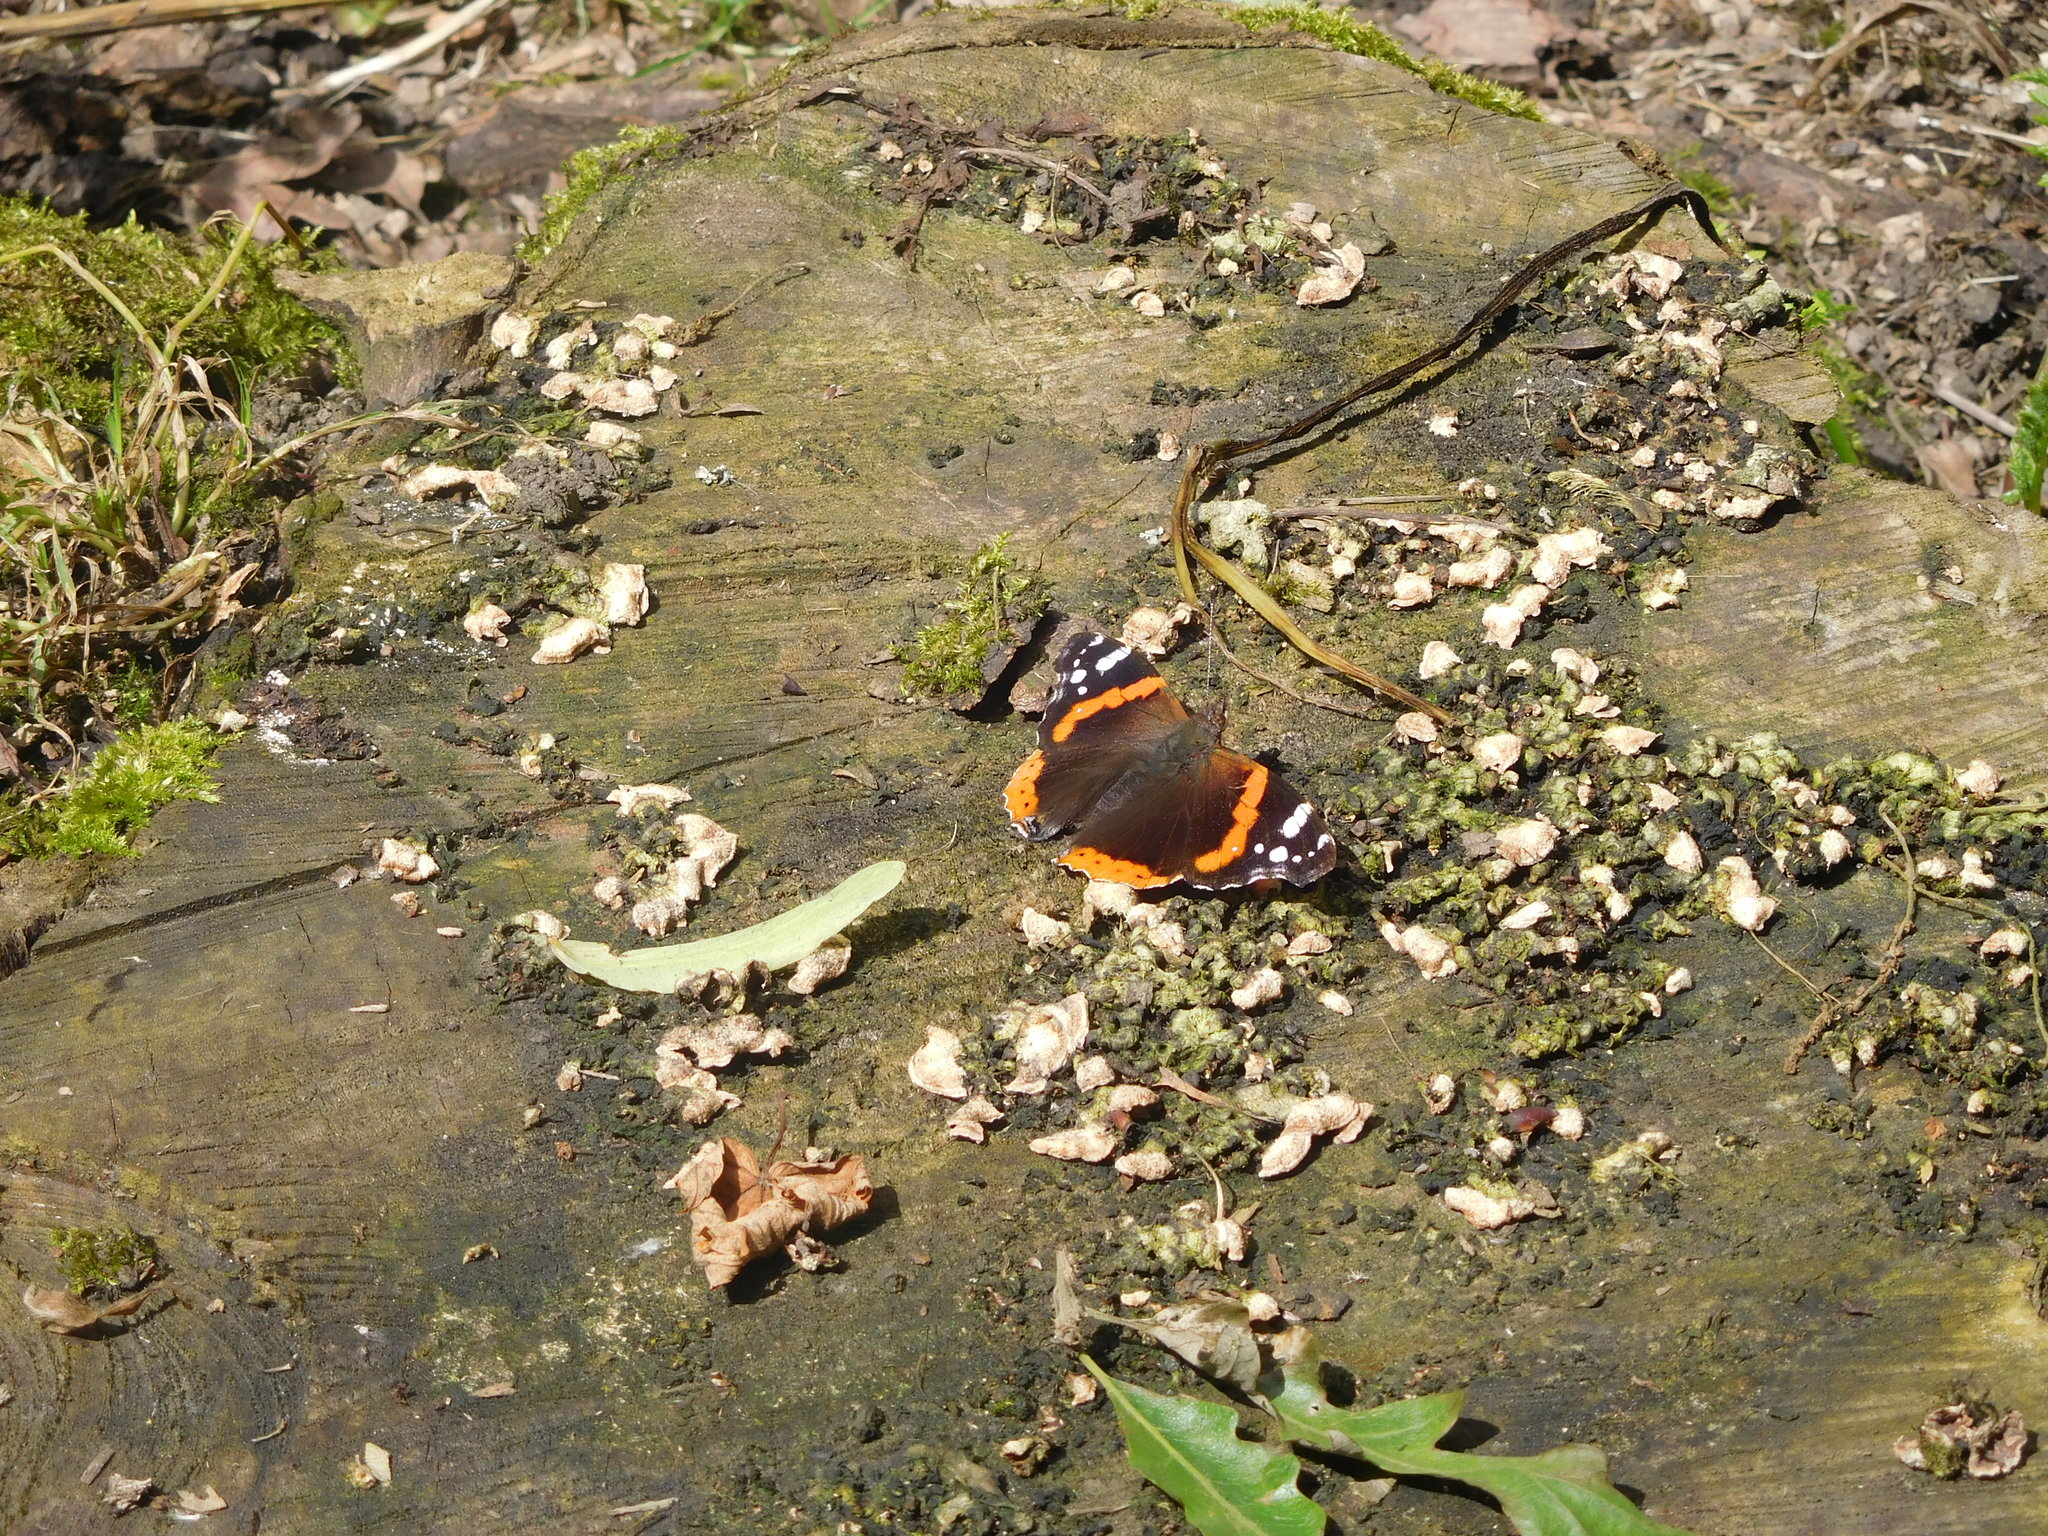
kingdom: Animalia
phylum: Arthropoda
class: Insecta
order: Lepidoptera
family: Nymphalidae
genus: Vanessa
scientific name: Vanessa atalanta
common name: Red admiral
